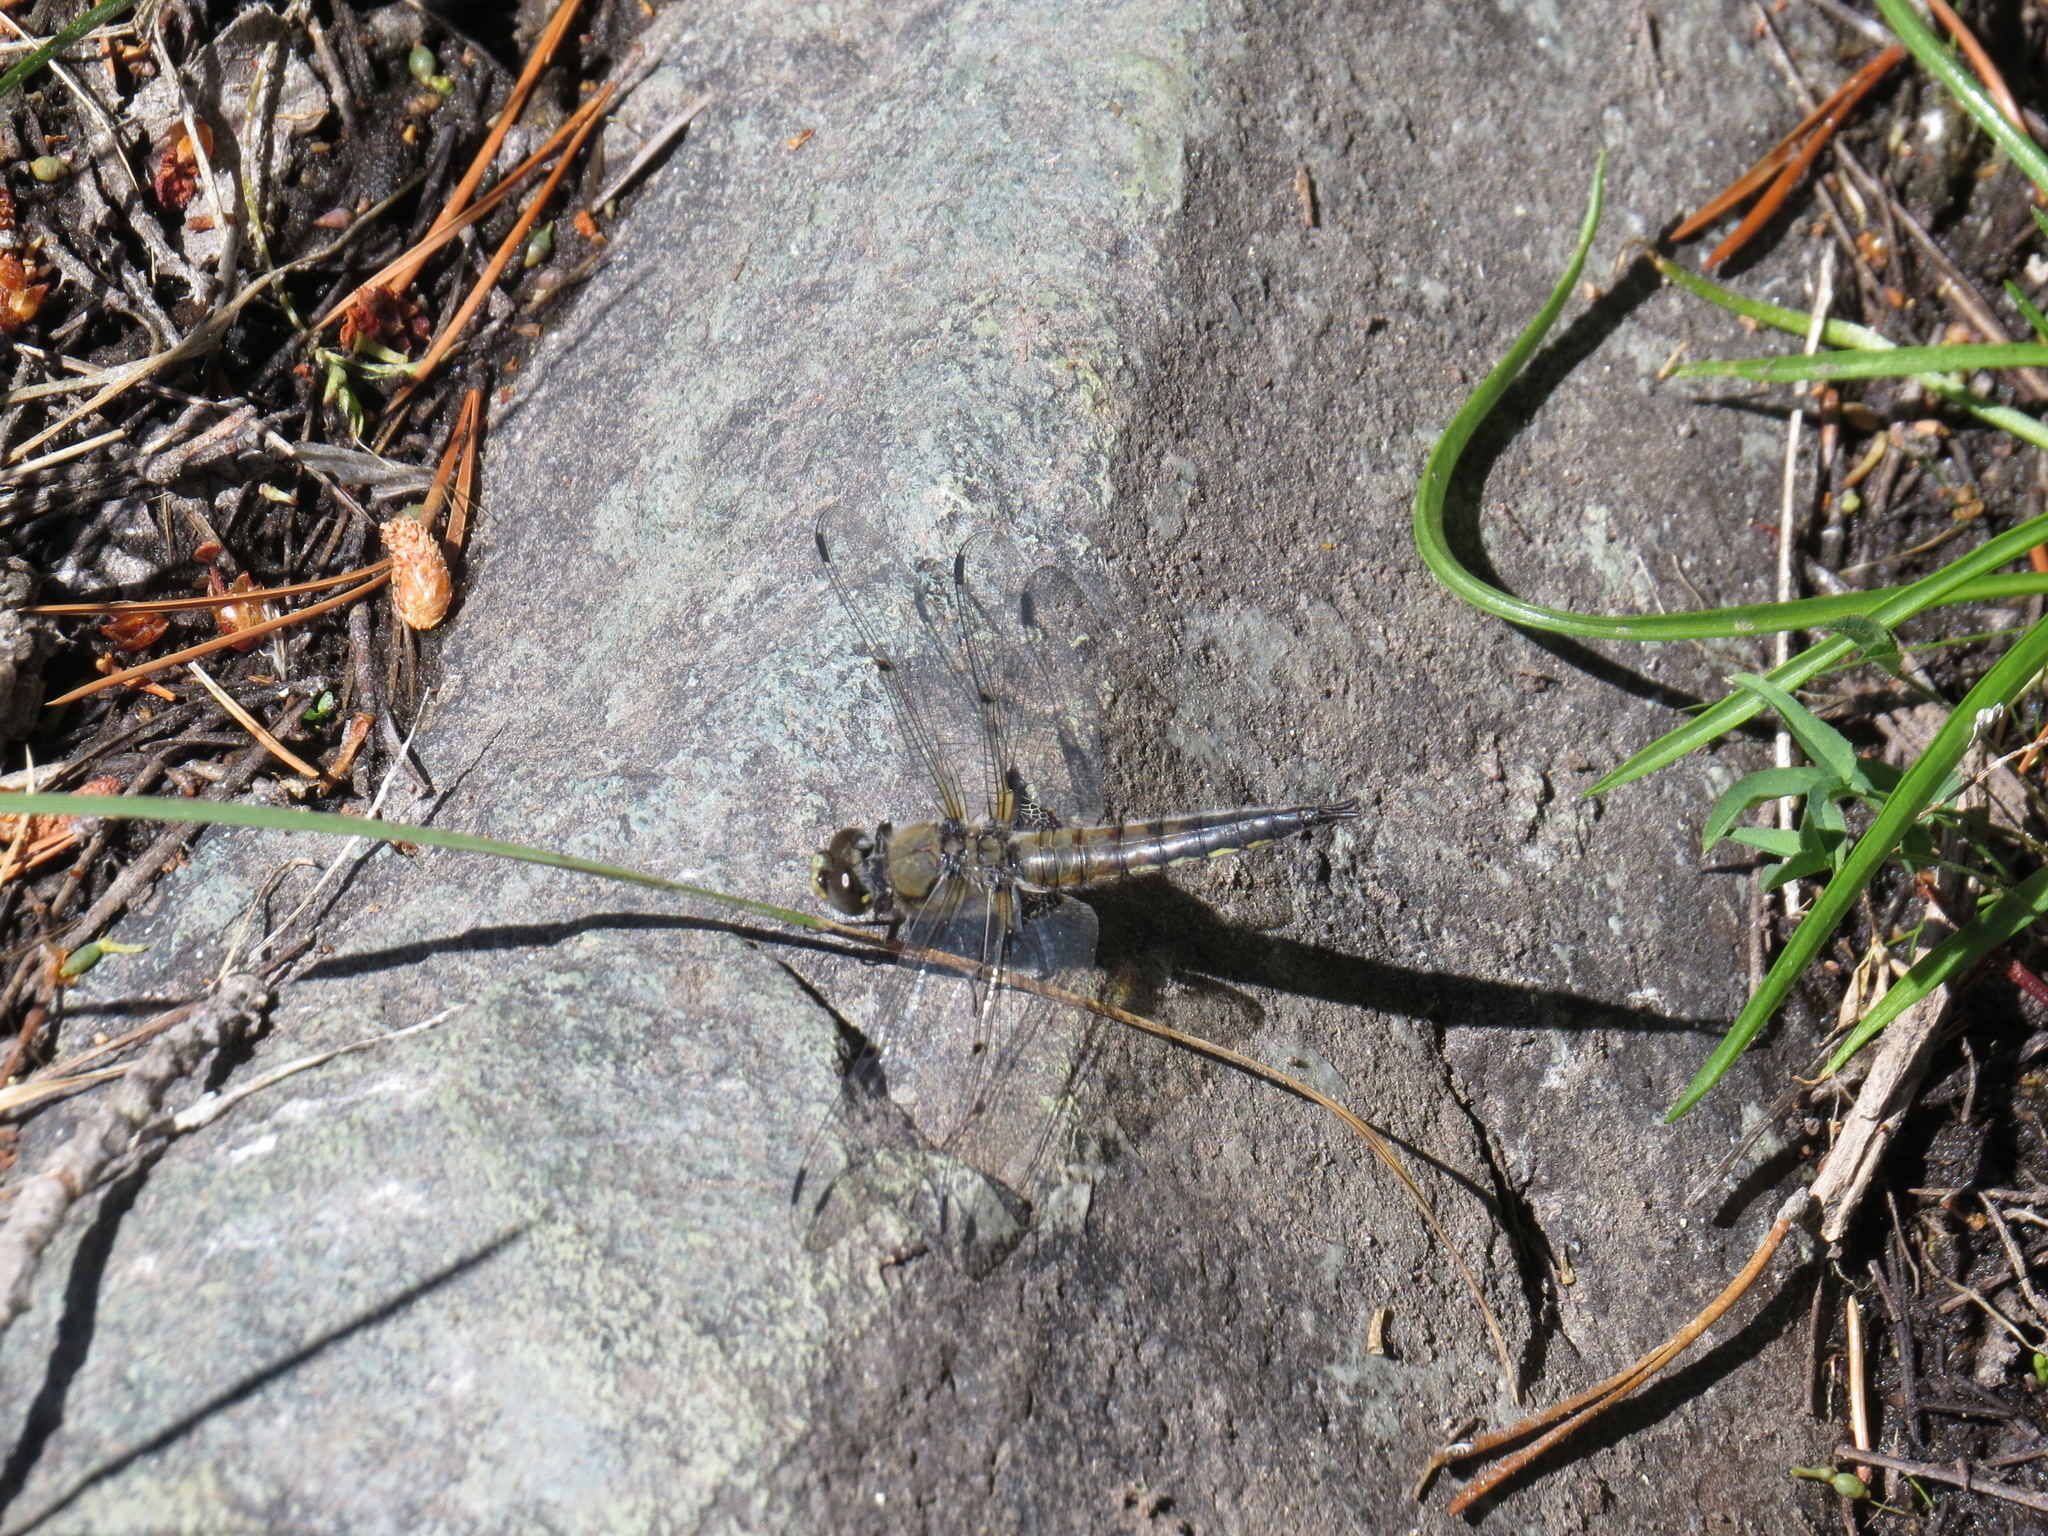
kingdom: Animalia
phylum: Arthropoda
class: Insecta
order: Odonata
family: Libellulidae
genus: Libellula
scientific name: Libellula quadrimaculata
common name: Four-spotted chaser
